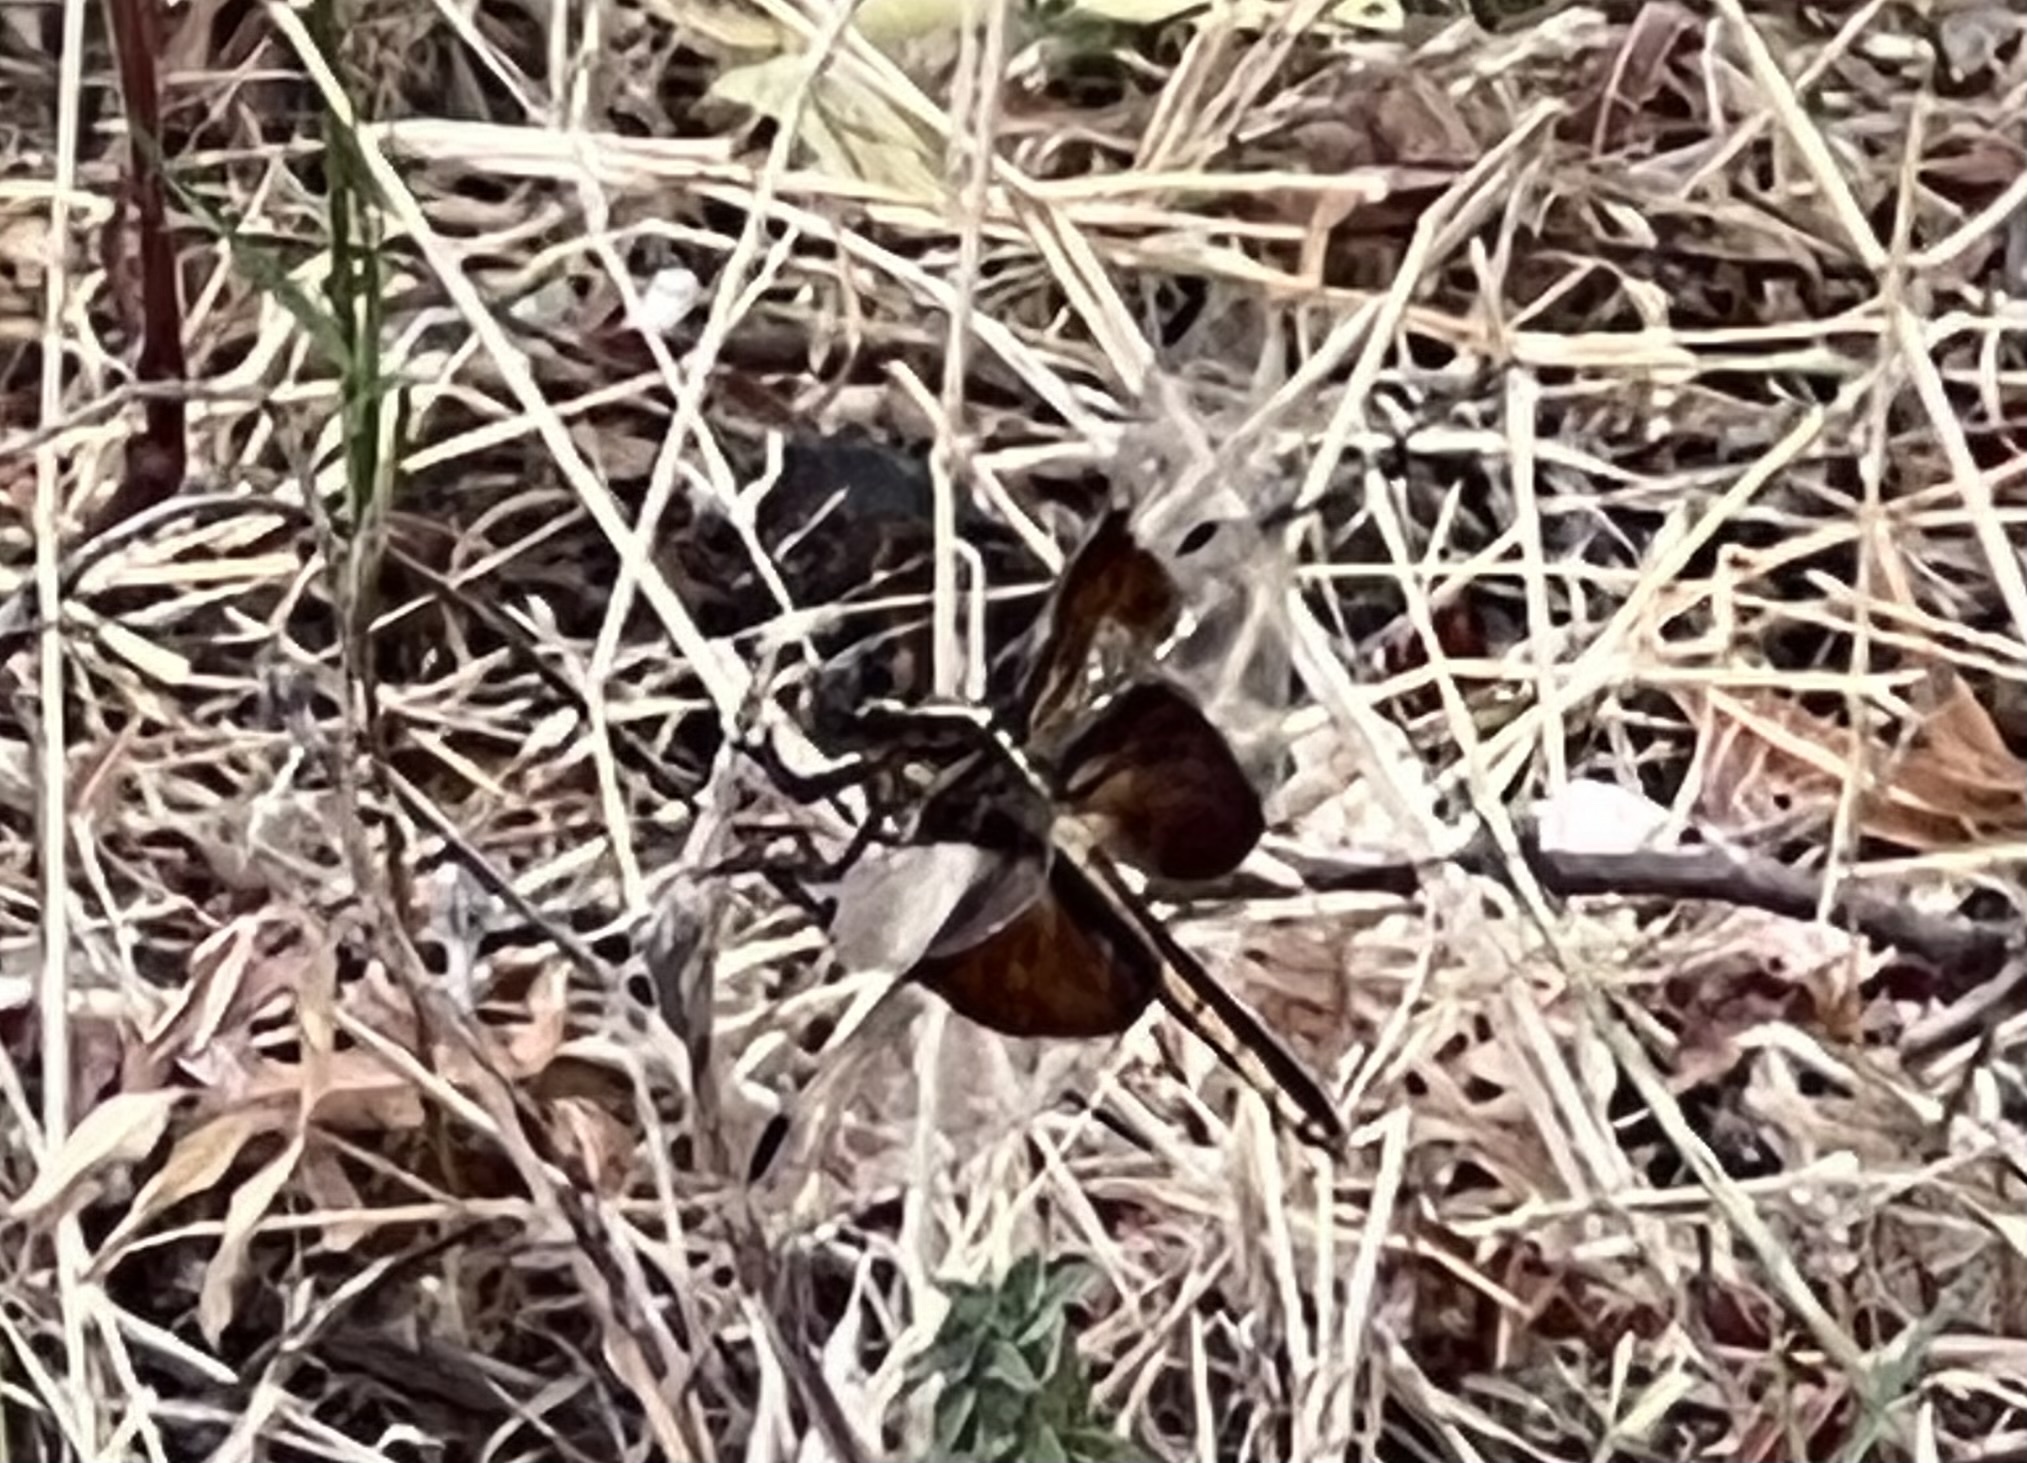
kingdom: Animalia
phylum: Arthropoda
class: Insecta
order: Odonata
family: Libellulidae
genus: Libellula
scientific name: Libellula luctuosa
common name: Widow skimmer
